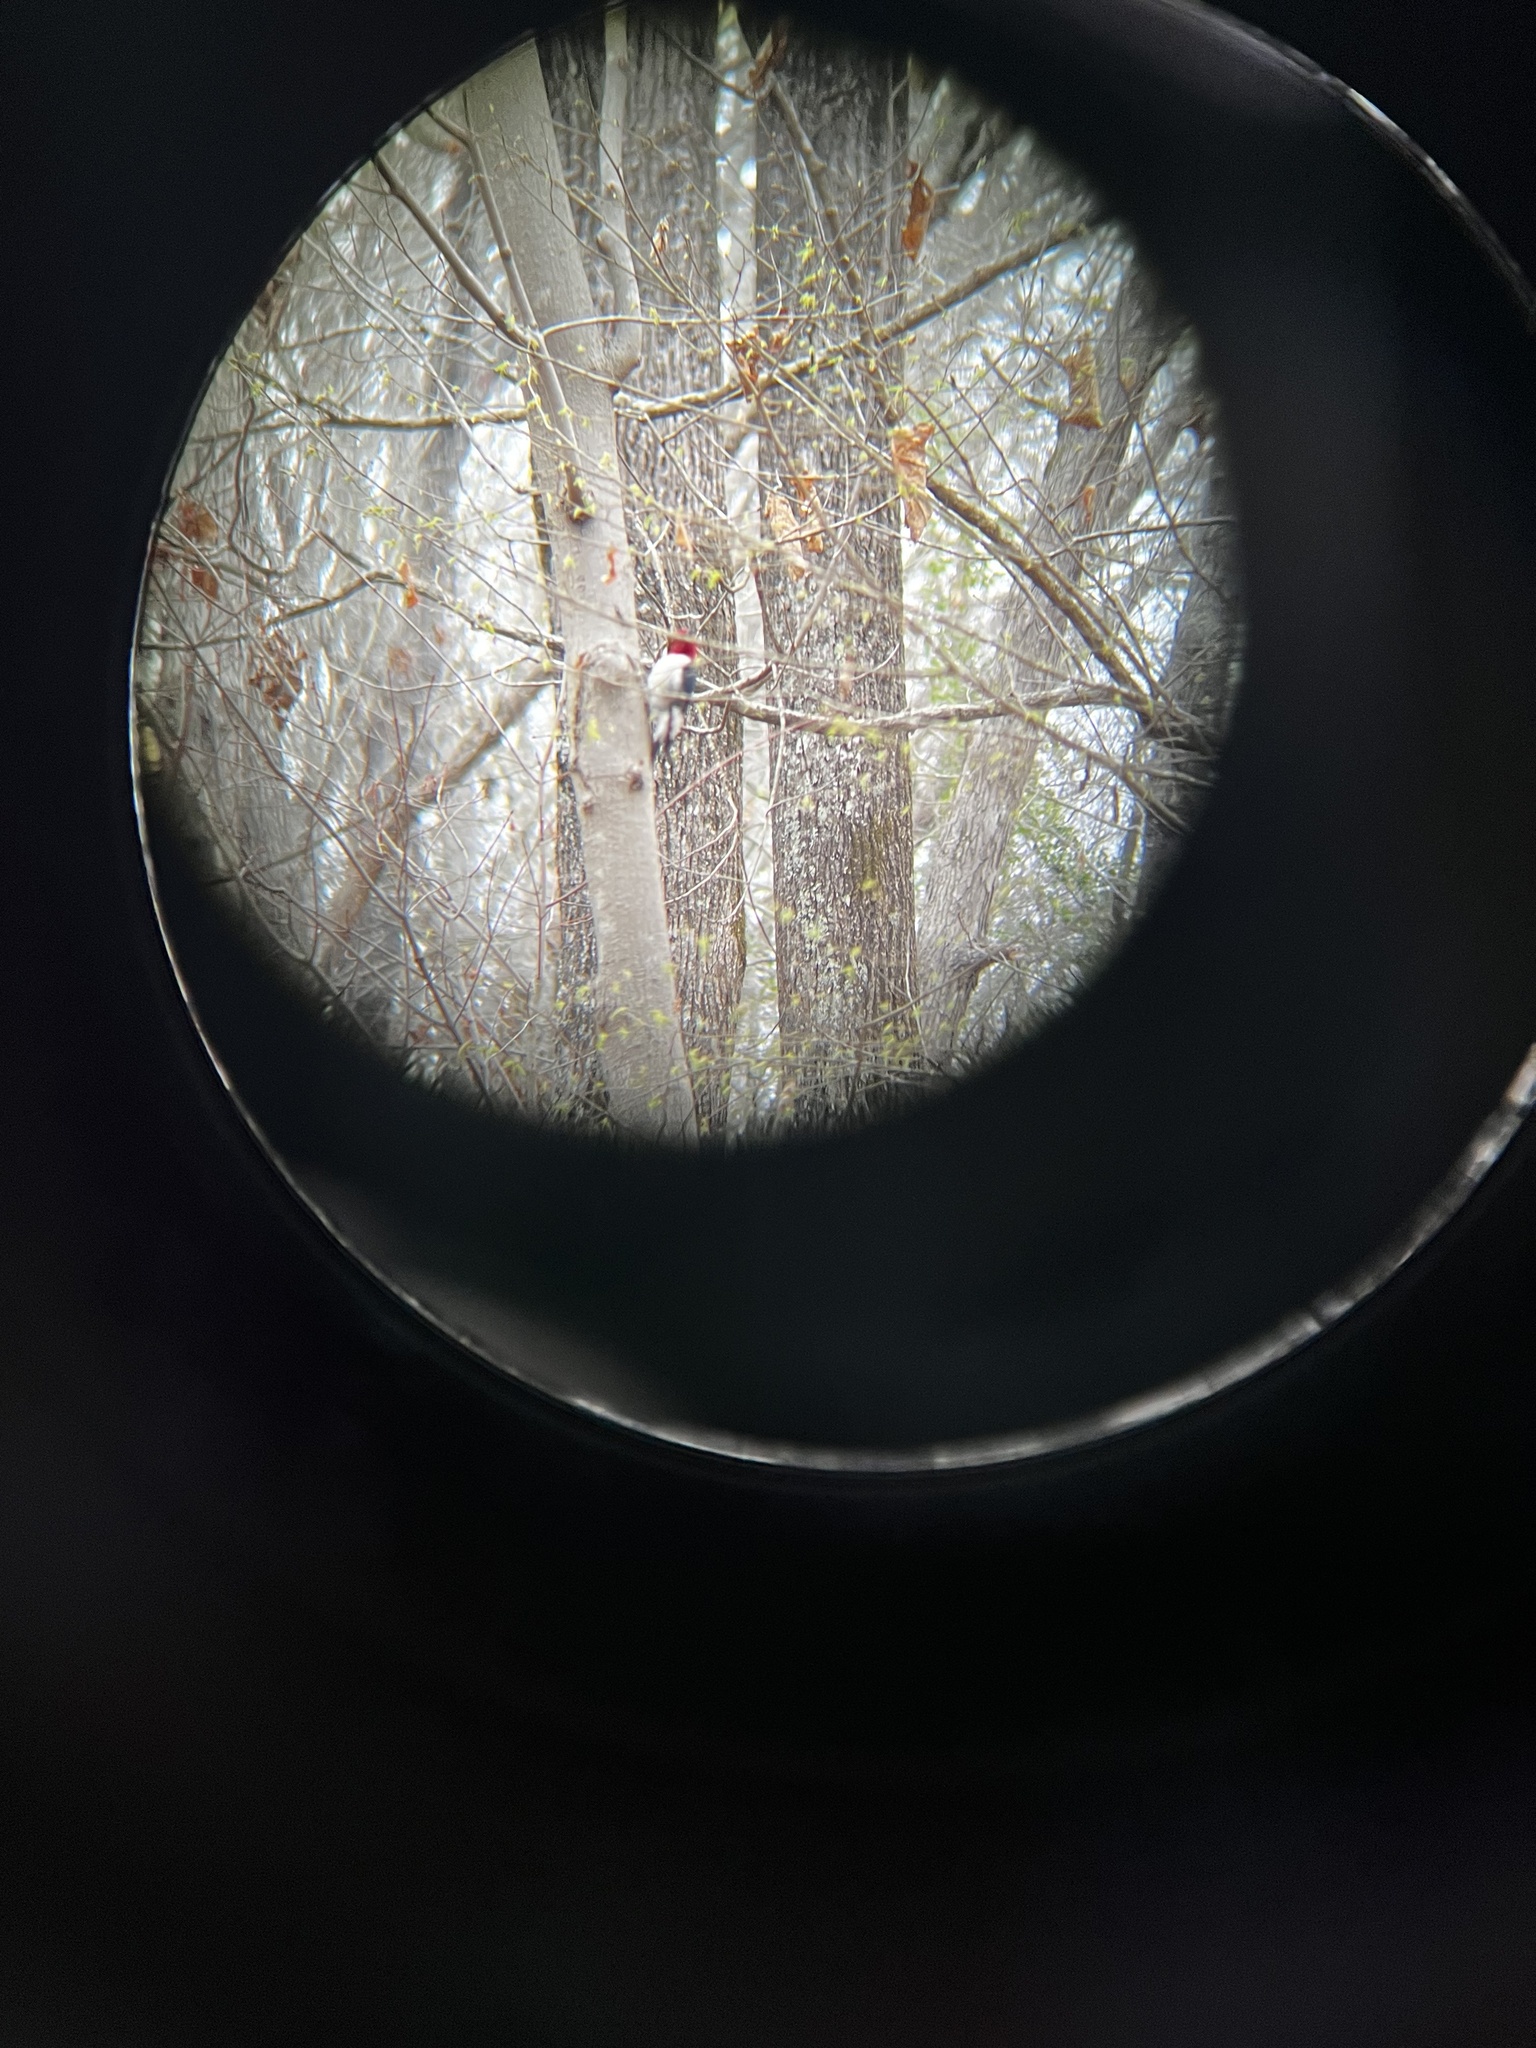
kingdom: Animalia
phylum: Chordata
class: Aves
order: Piciformes
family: Picidae
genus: Melanerpes
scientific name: Melanerpes erythrocephalus
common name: Red-headed woodpecker
